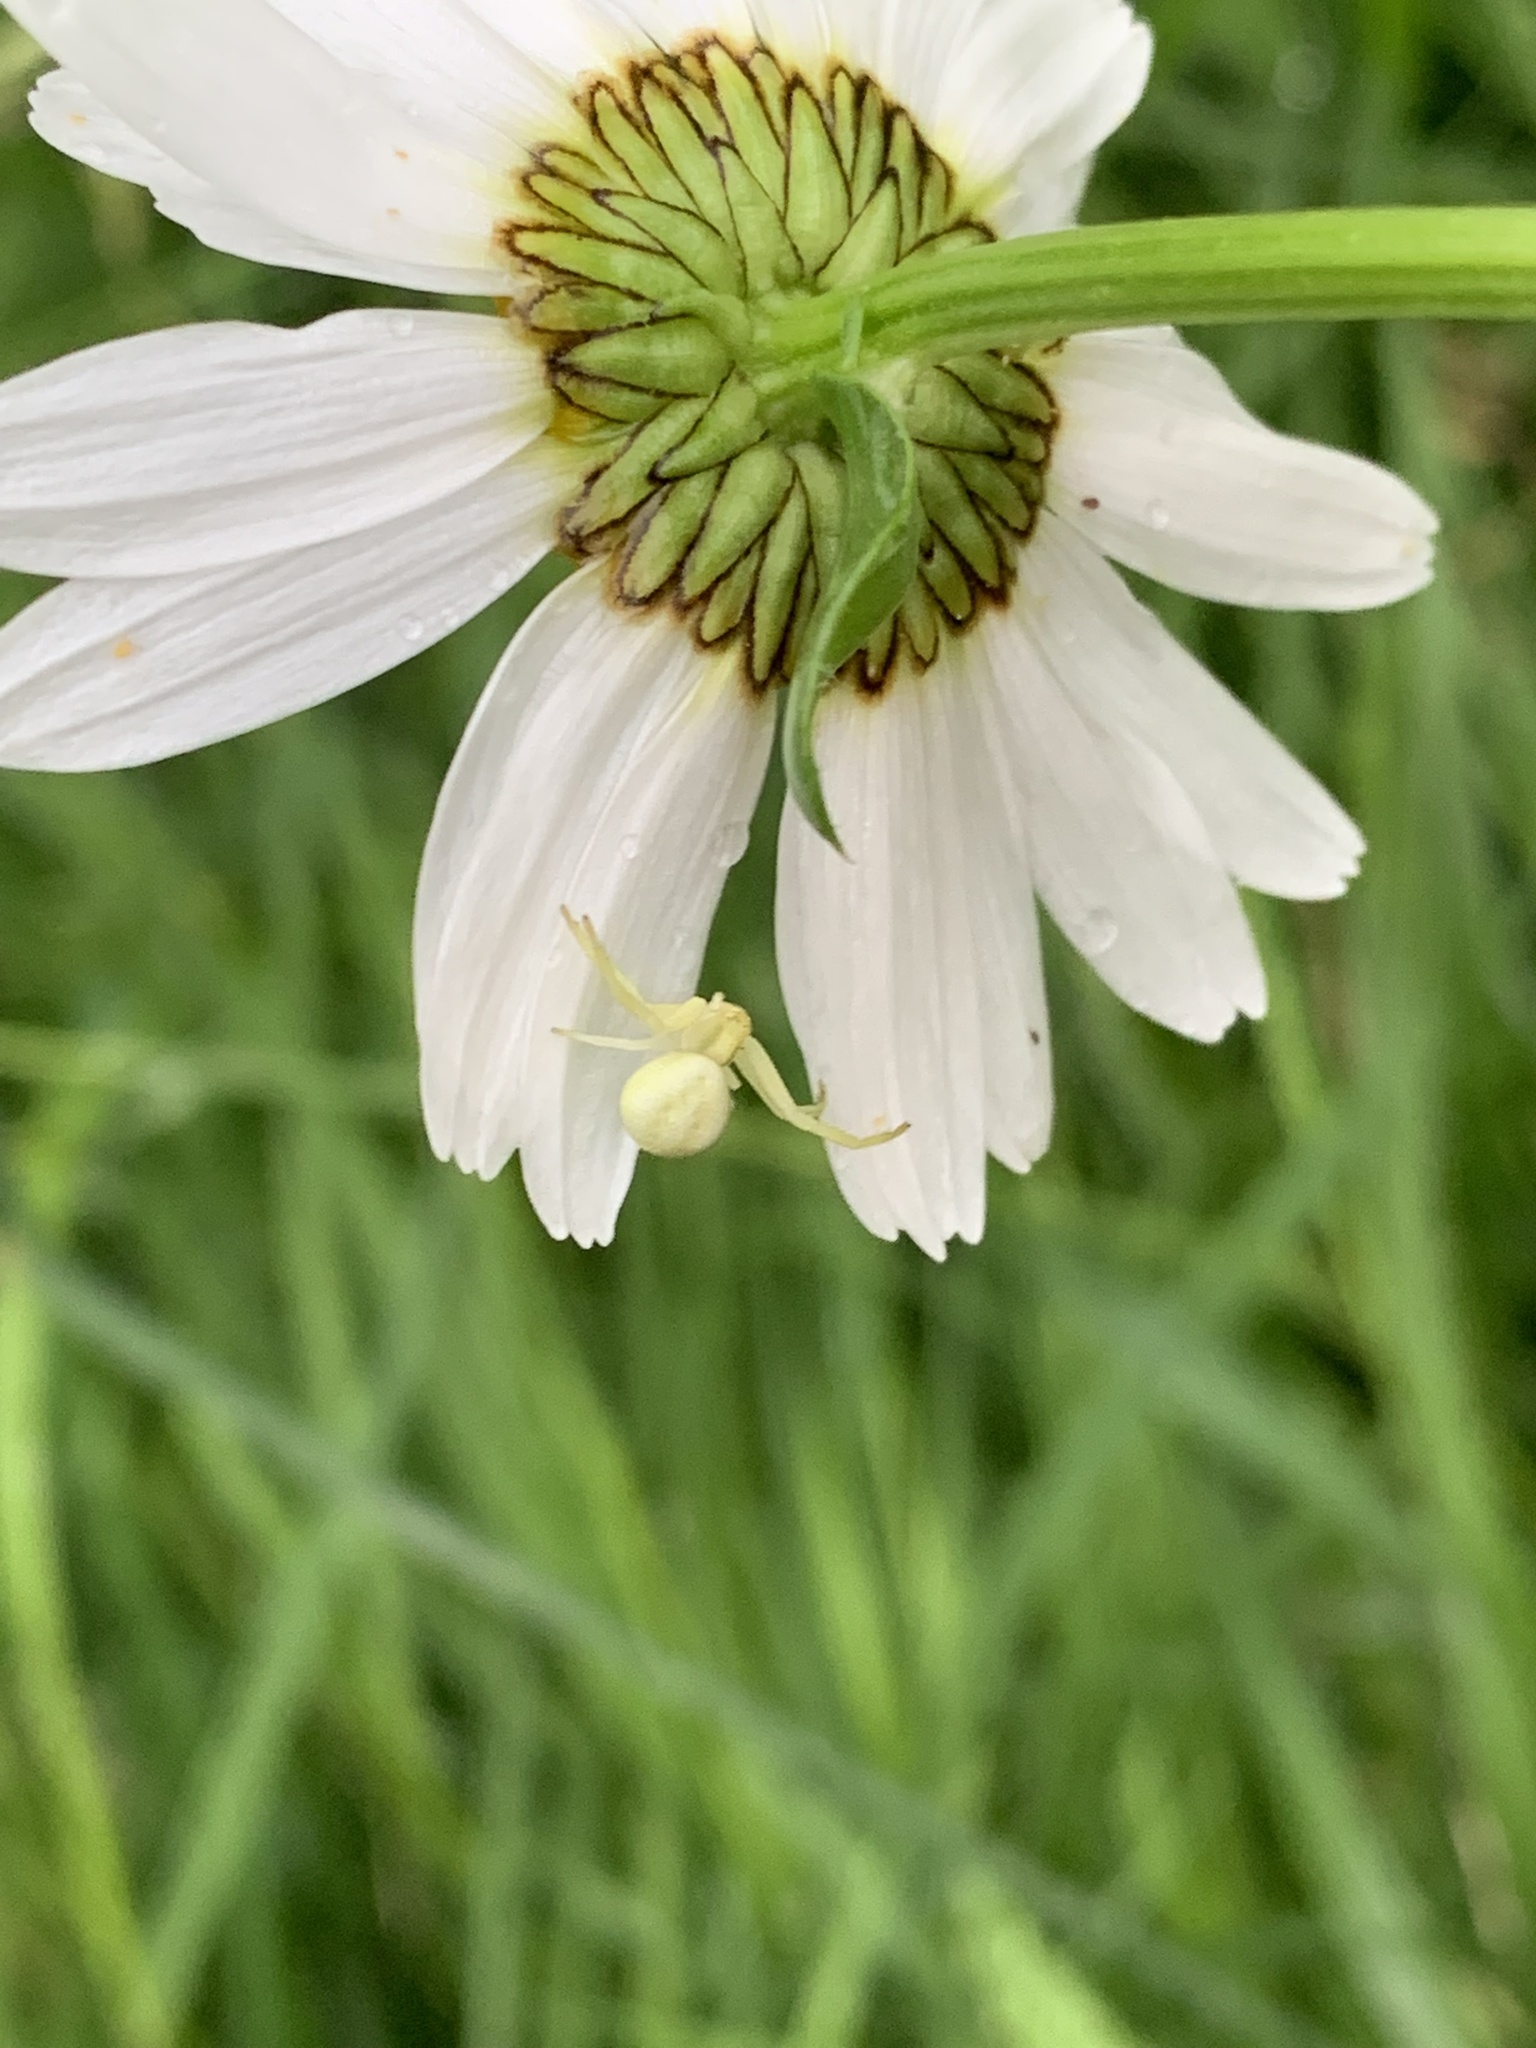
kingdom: Animalia
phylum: Arthropoda
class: Arachnida
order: Araneae
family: Thomisidae
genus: Misumena
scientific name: Misumena vatia
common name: Goldenrod crab spider
